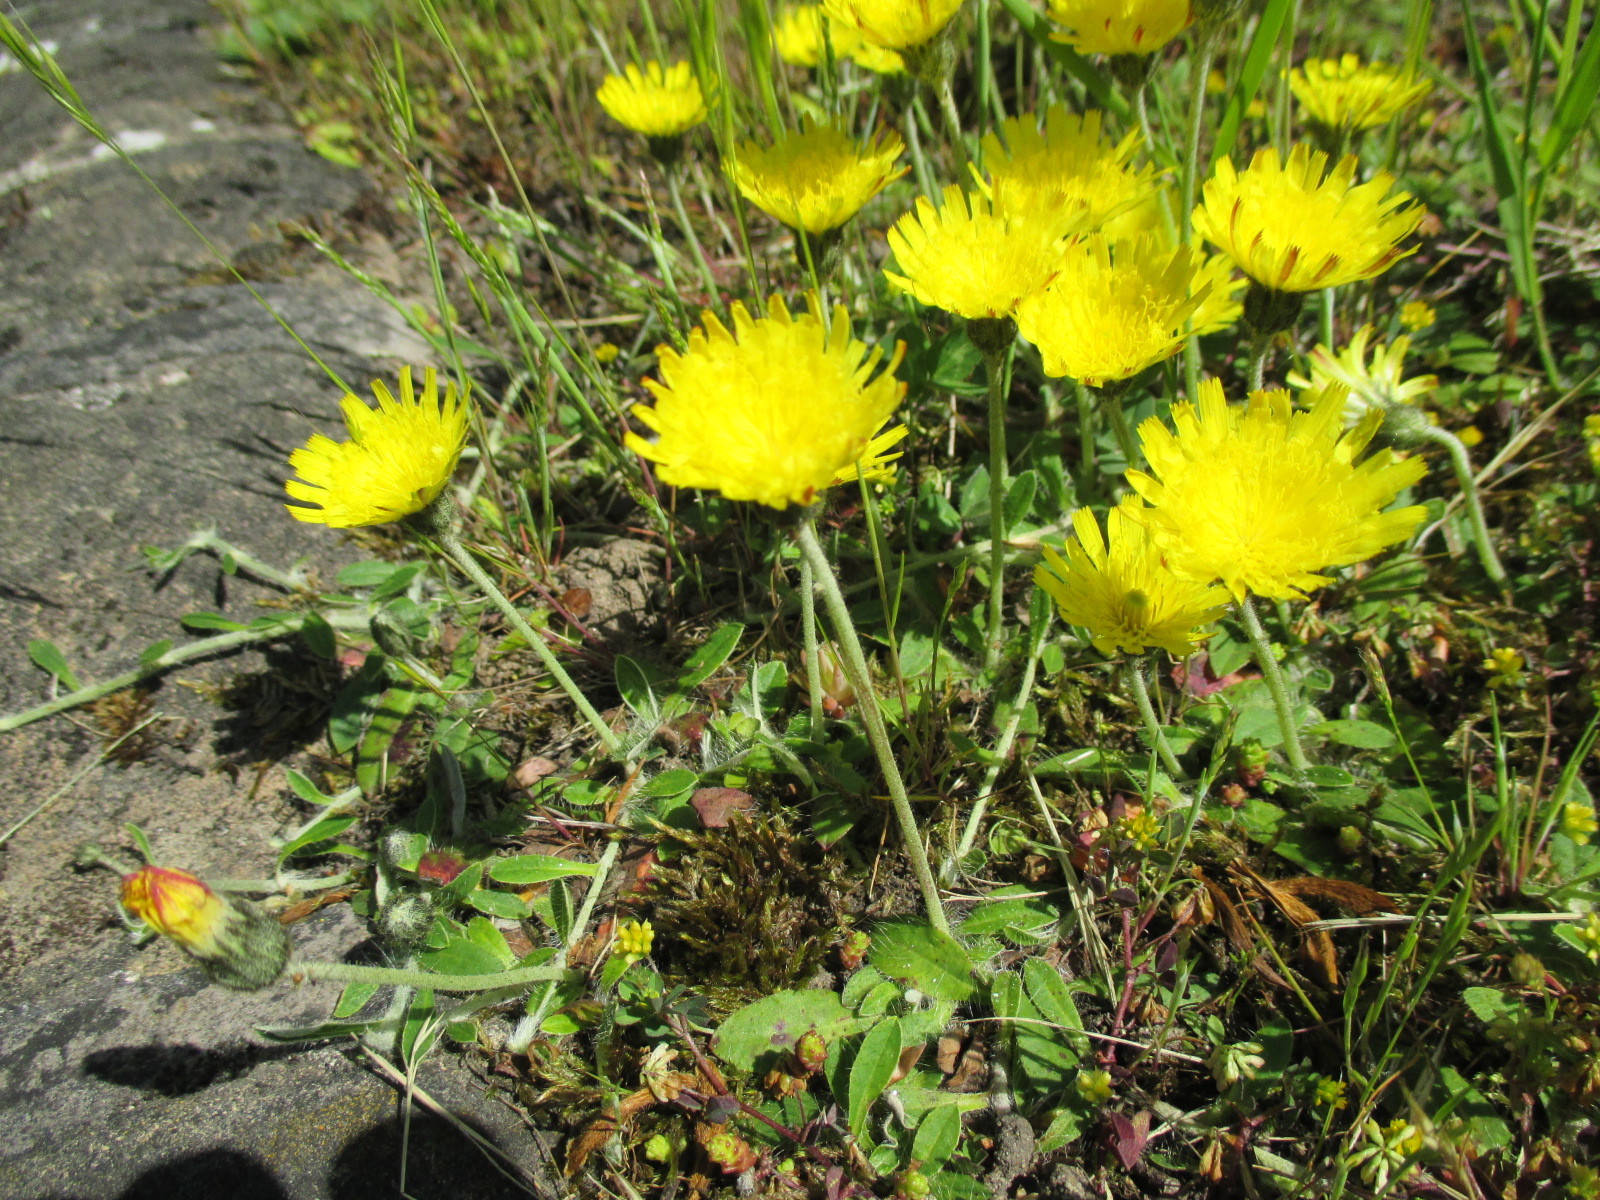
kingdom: Plantae
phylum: Tracheophyta
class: Magnoliopsida
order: Asterales
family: Asteraceae
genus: Pilosella
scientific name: Pilosella officinarum
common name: Mouse-ear hawkweed
